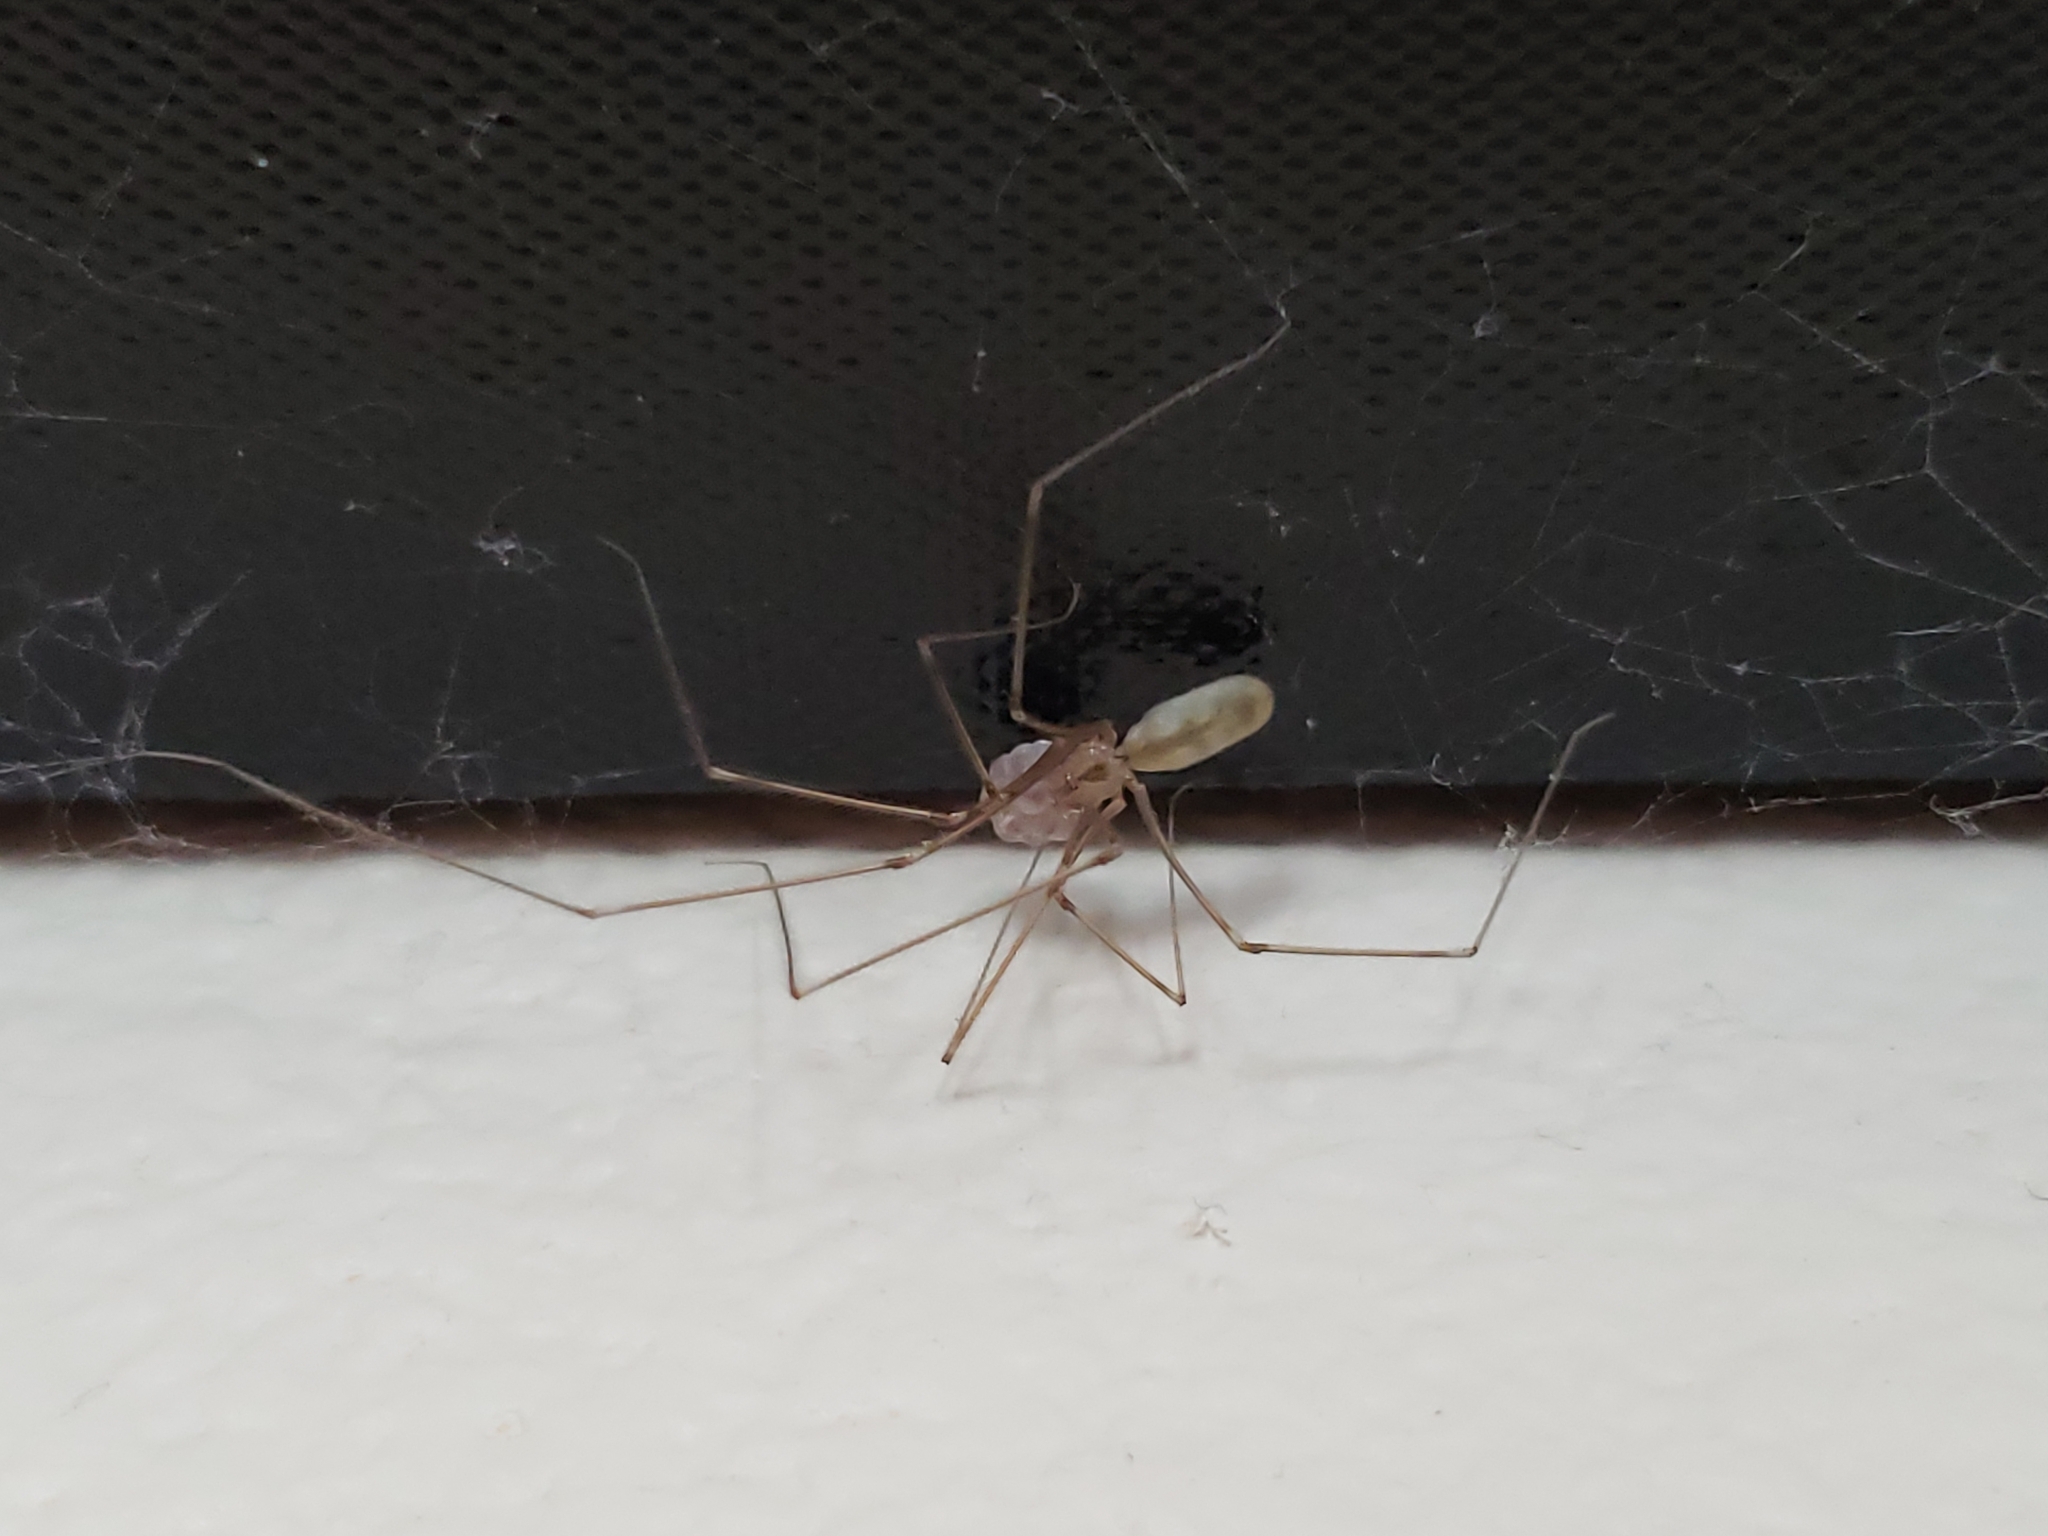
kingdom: Animalia
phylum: Arthropoda
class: Arachnida
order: Araneae
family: Pholcidae
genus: Pholcus
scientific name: Pholcus phalangioides
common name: Longbodied cellar spider
